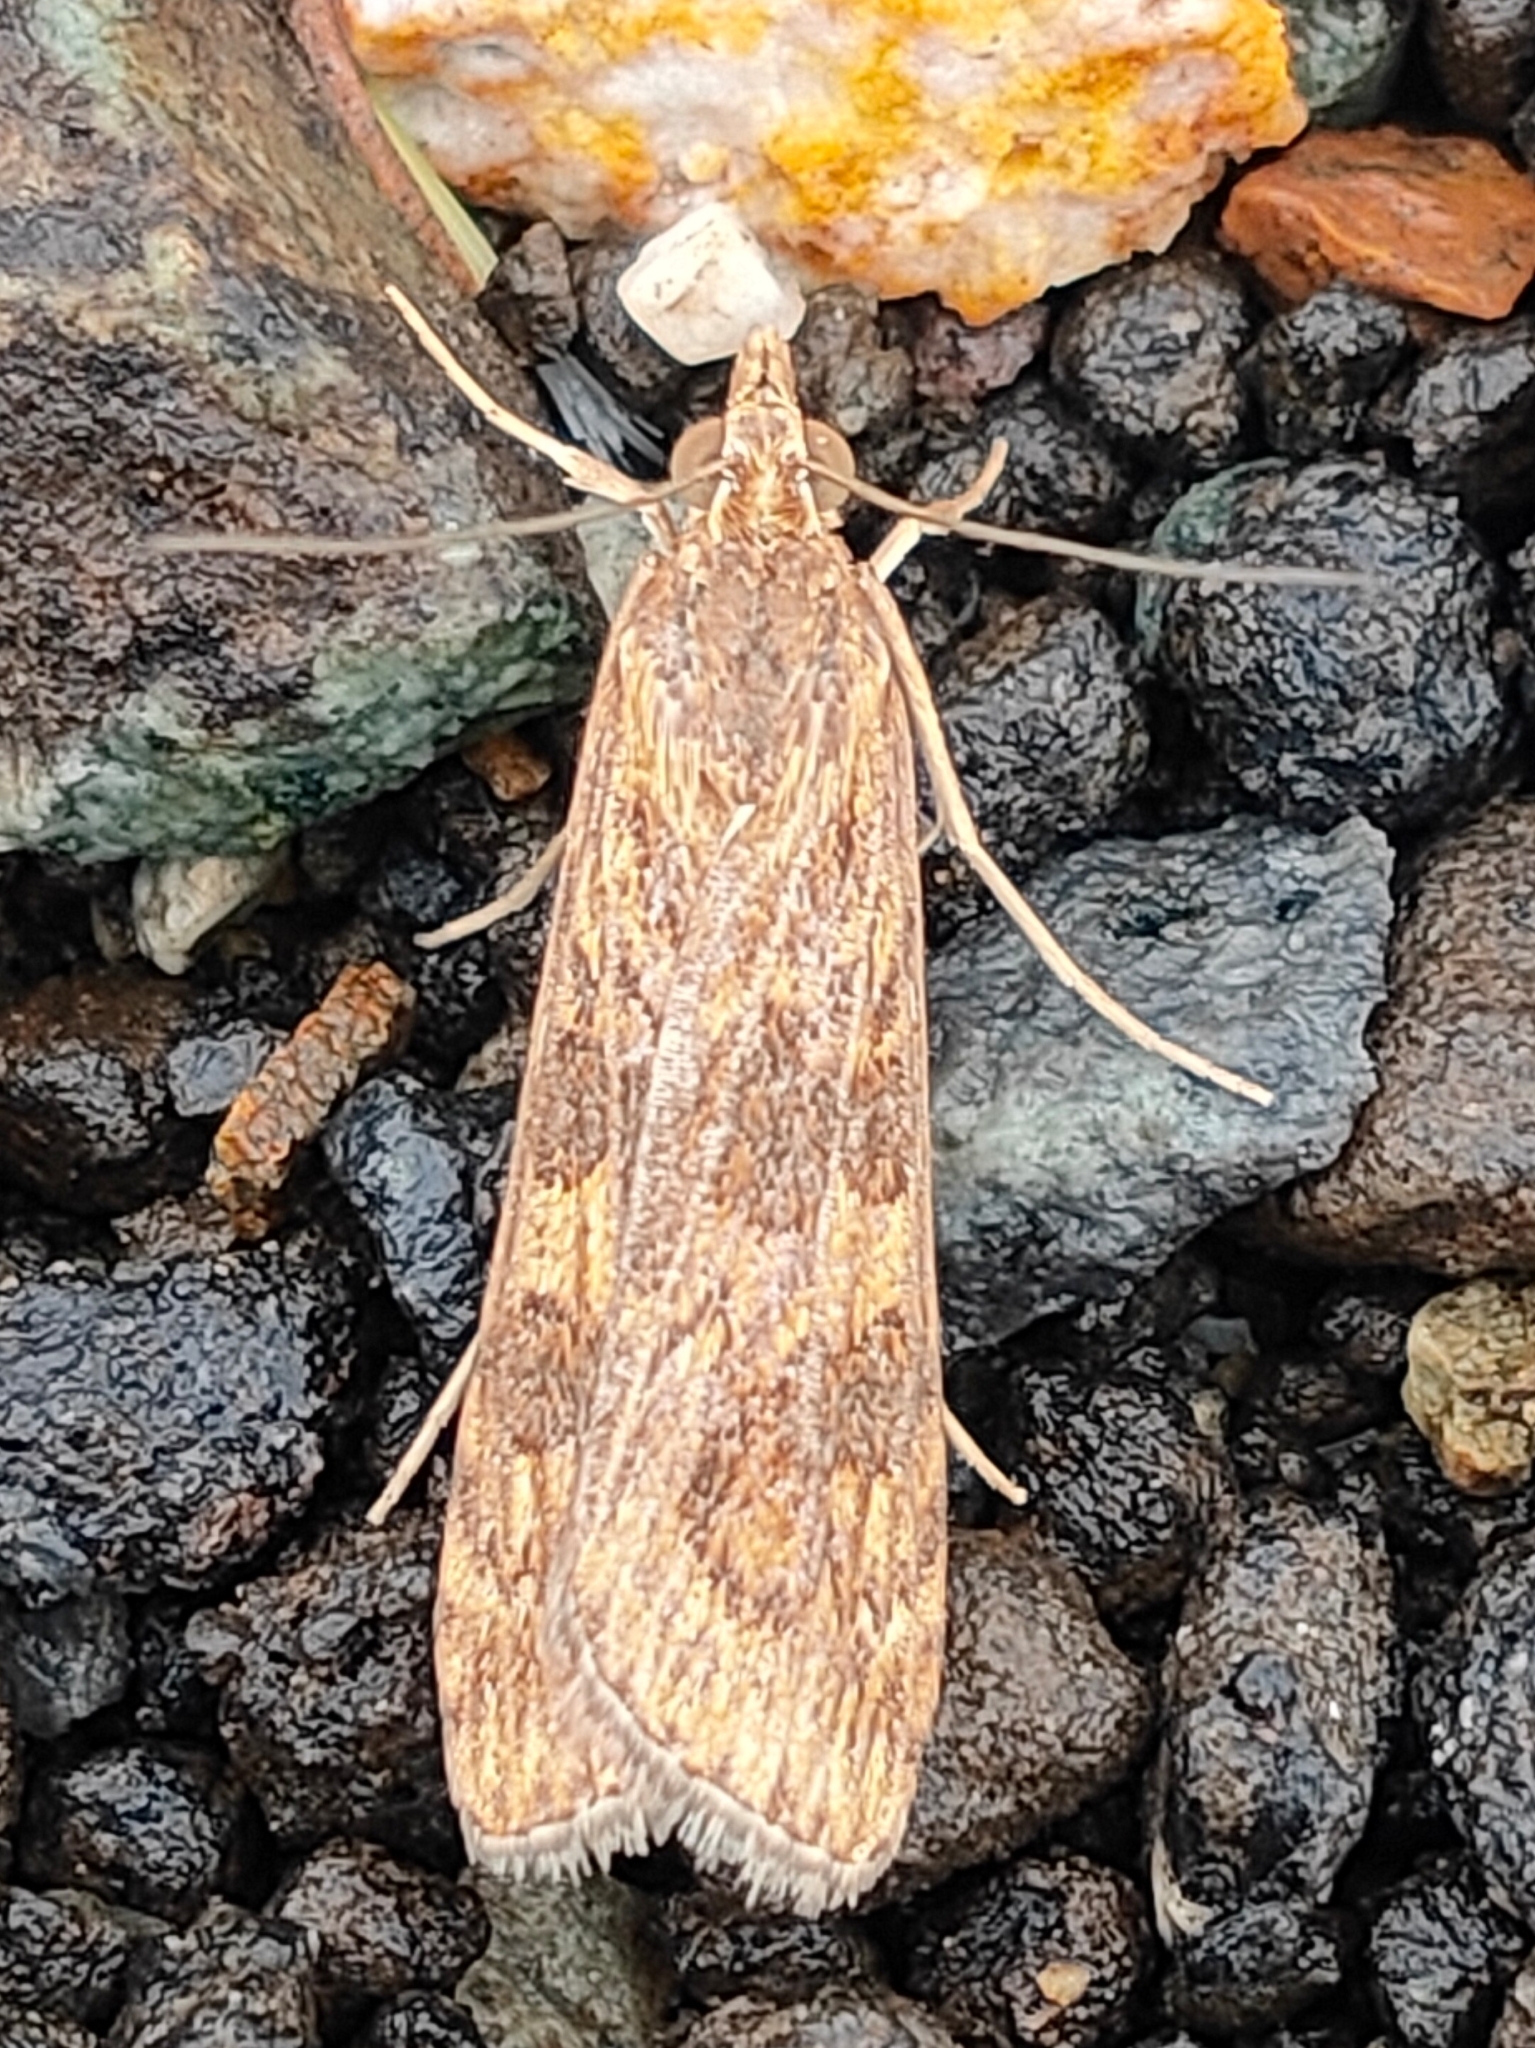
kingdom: Animalia
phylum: Arthropoda
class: Insecta
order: Lepidoptera
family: Crambidae
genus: Nomophila
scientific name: Nomophila noctuella
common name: Rush veneer
